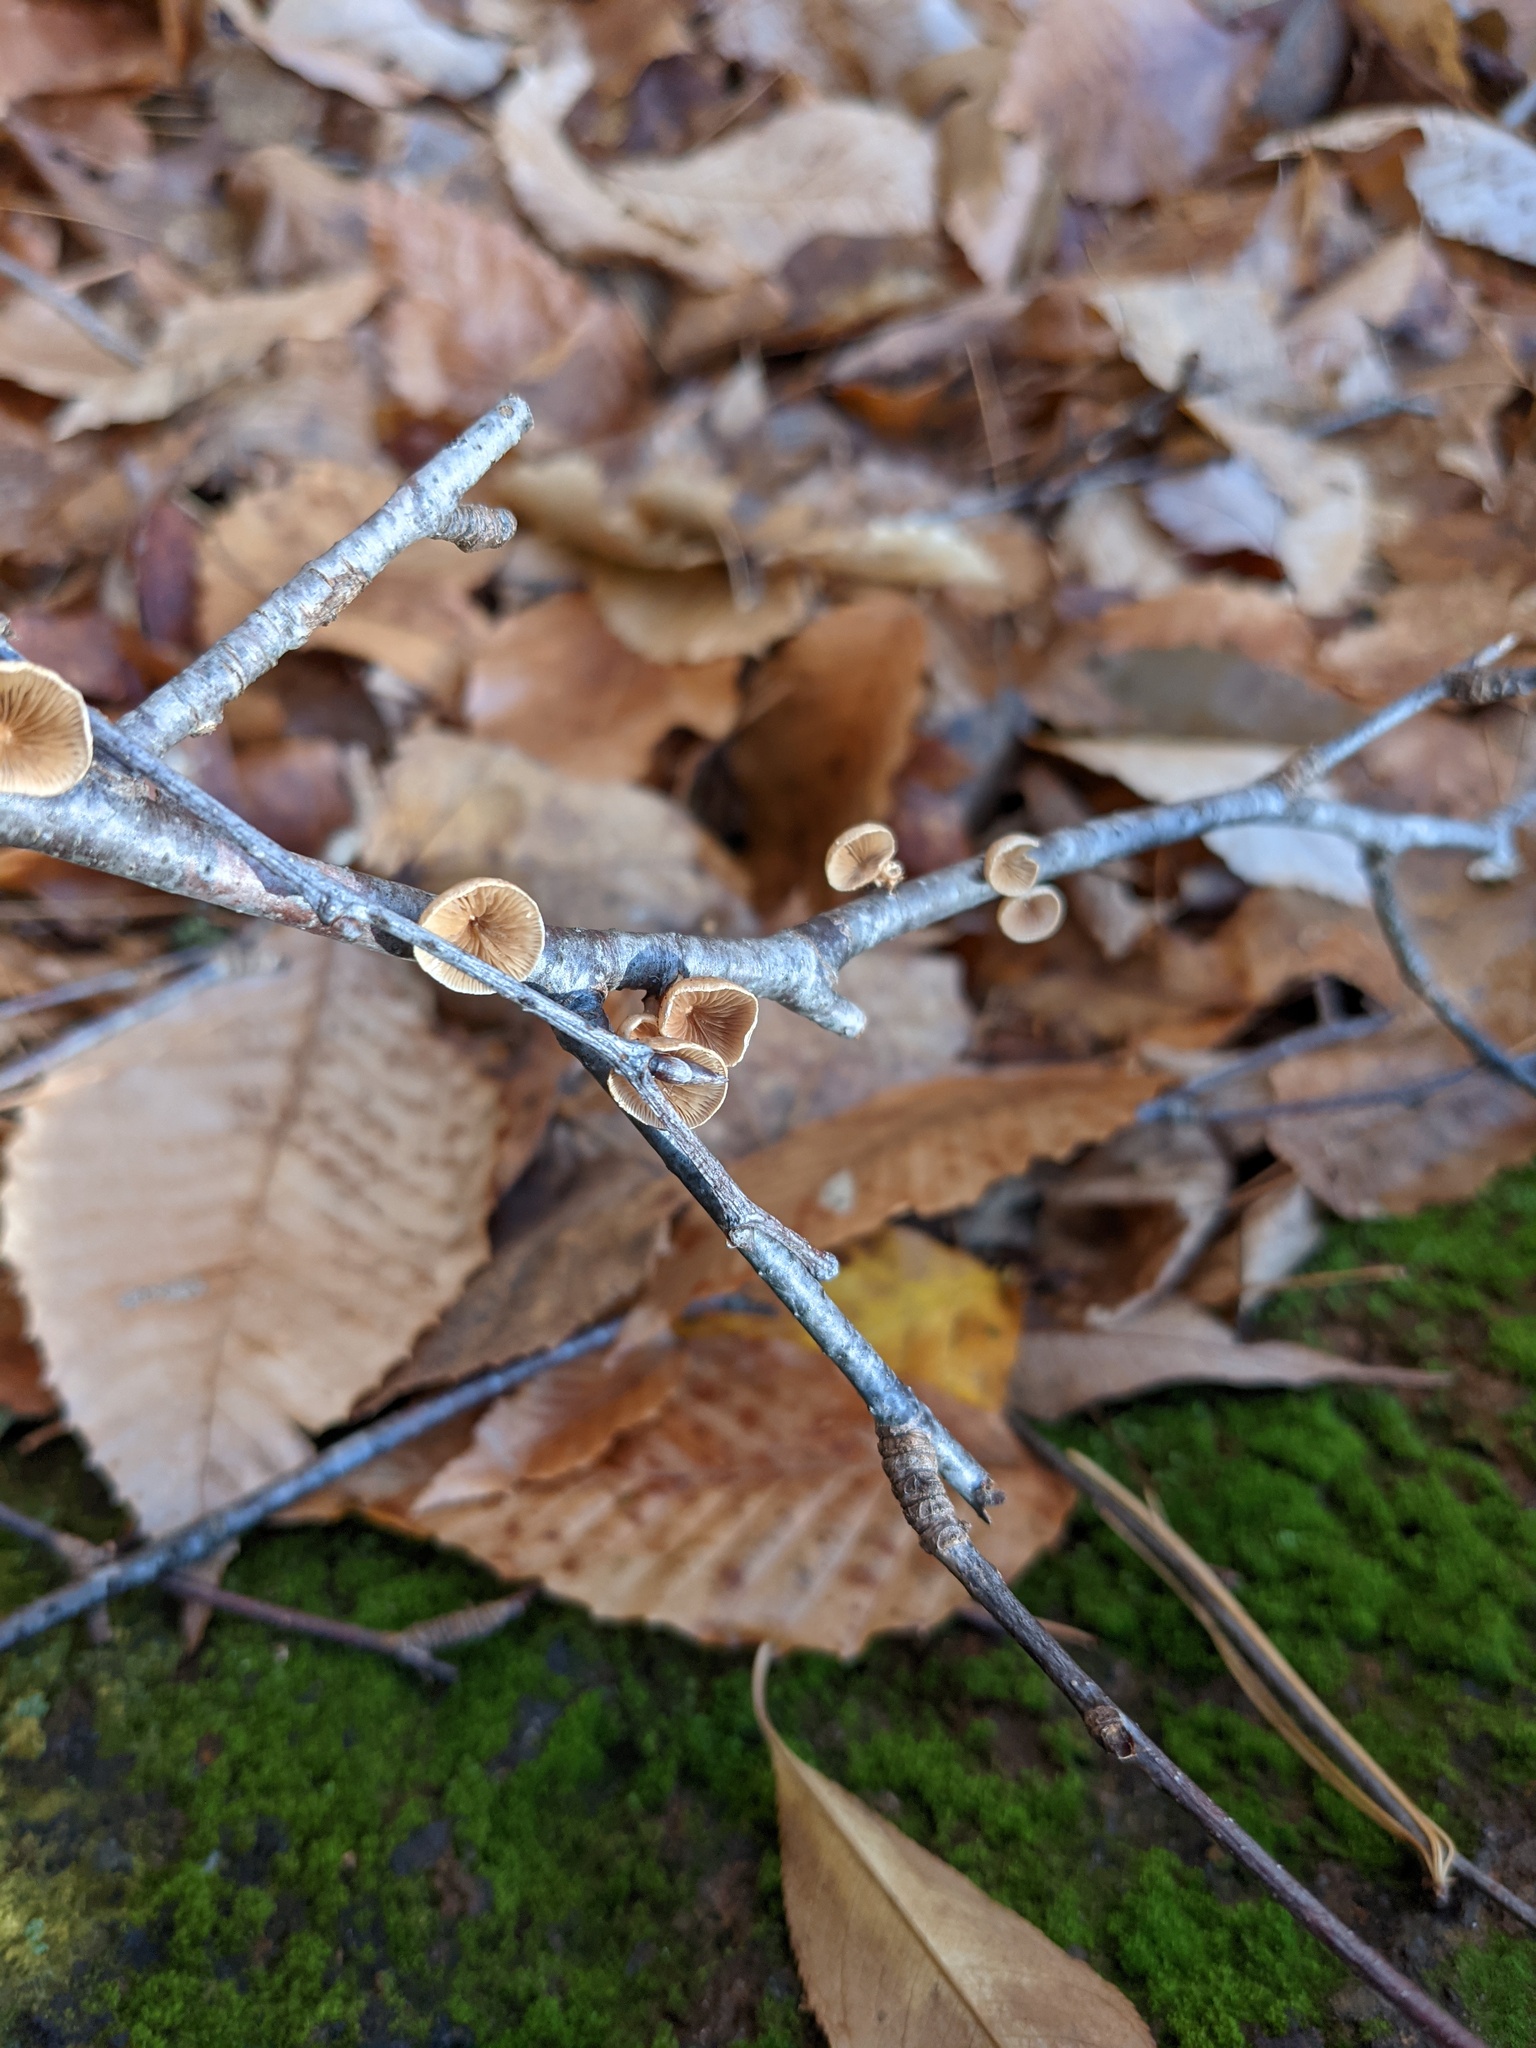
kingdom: Fungi
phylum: Basidiomycota
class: Agaricomycetes
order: Agaricales
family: Mycenaceae
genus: Tectella
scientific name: Tectella patellaris
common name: Veiled panus
